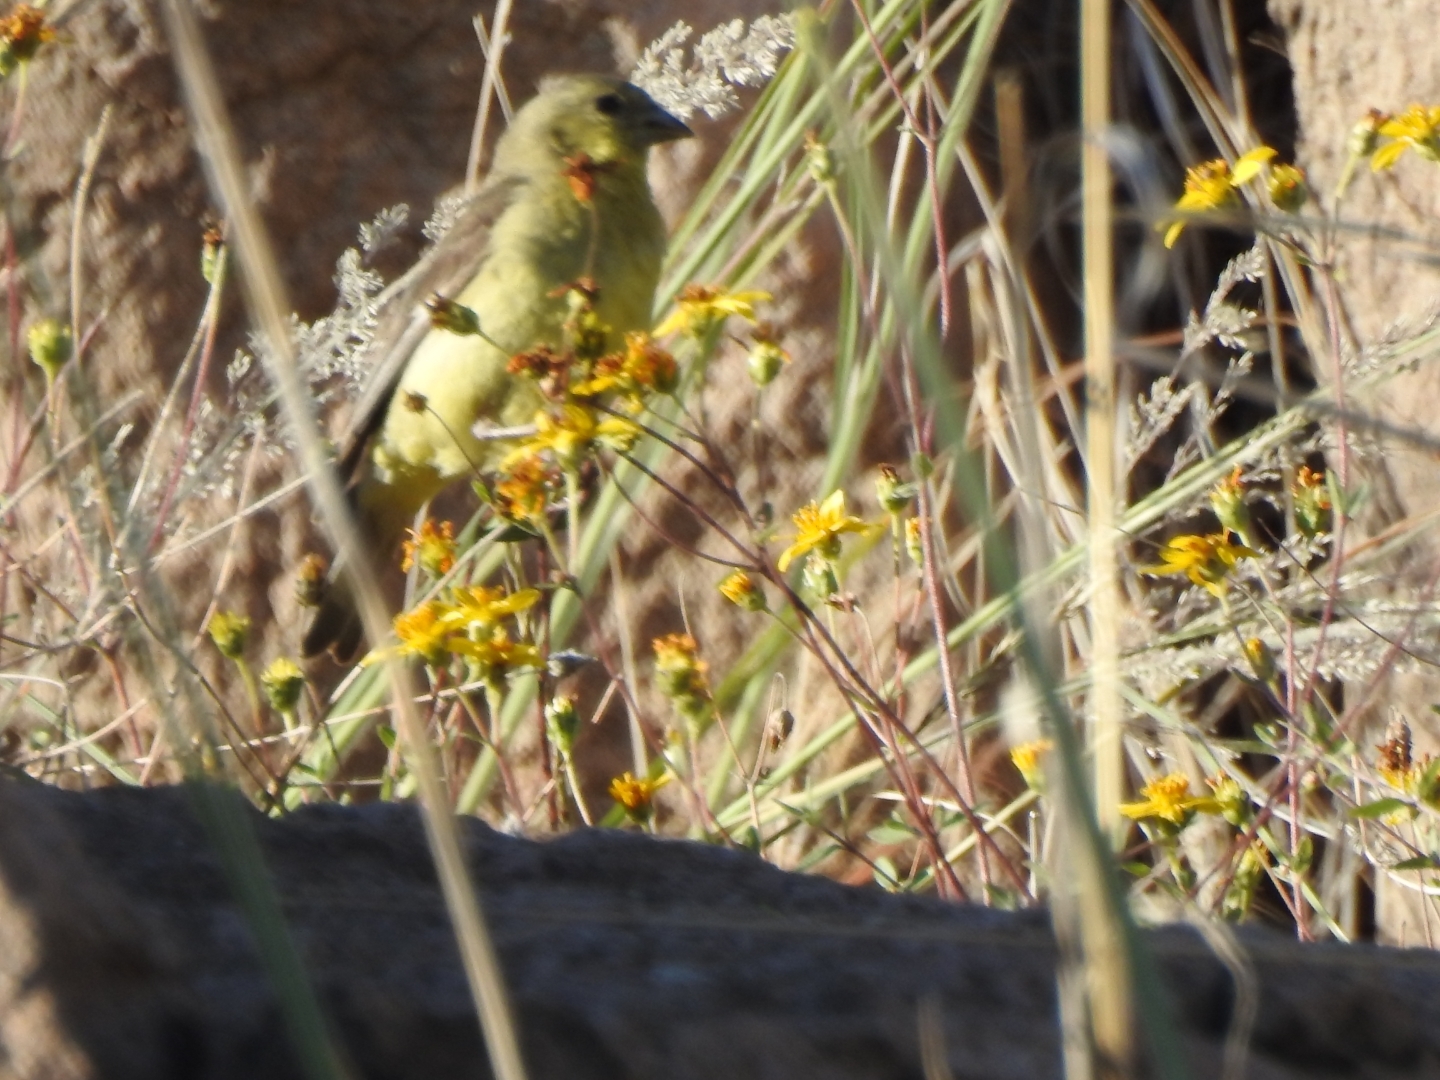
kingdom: Animalia
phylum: Chordata
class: Aves
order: Passeriformes
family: Fringillidae
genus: Spinus
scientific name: Spinus psaltria
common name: Lesser goldfinch
